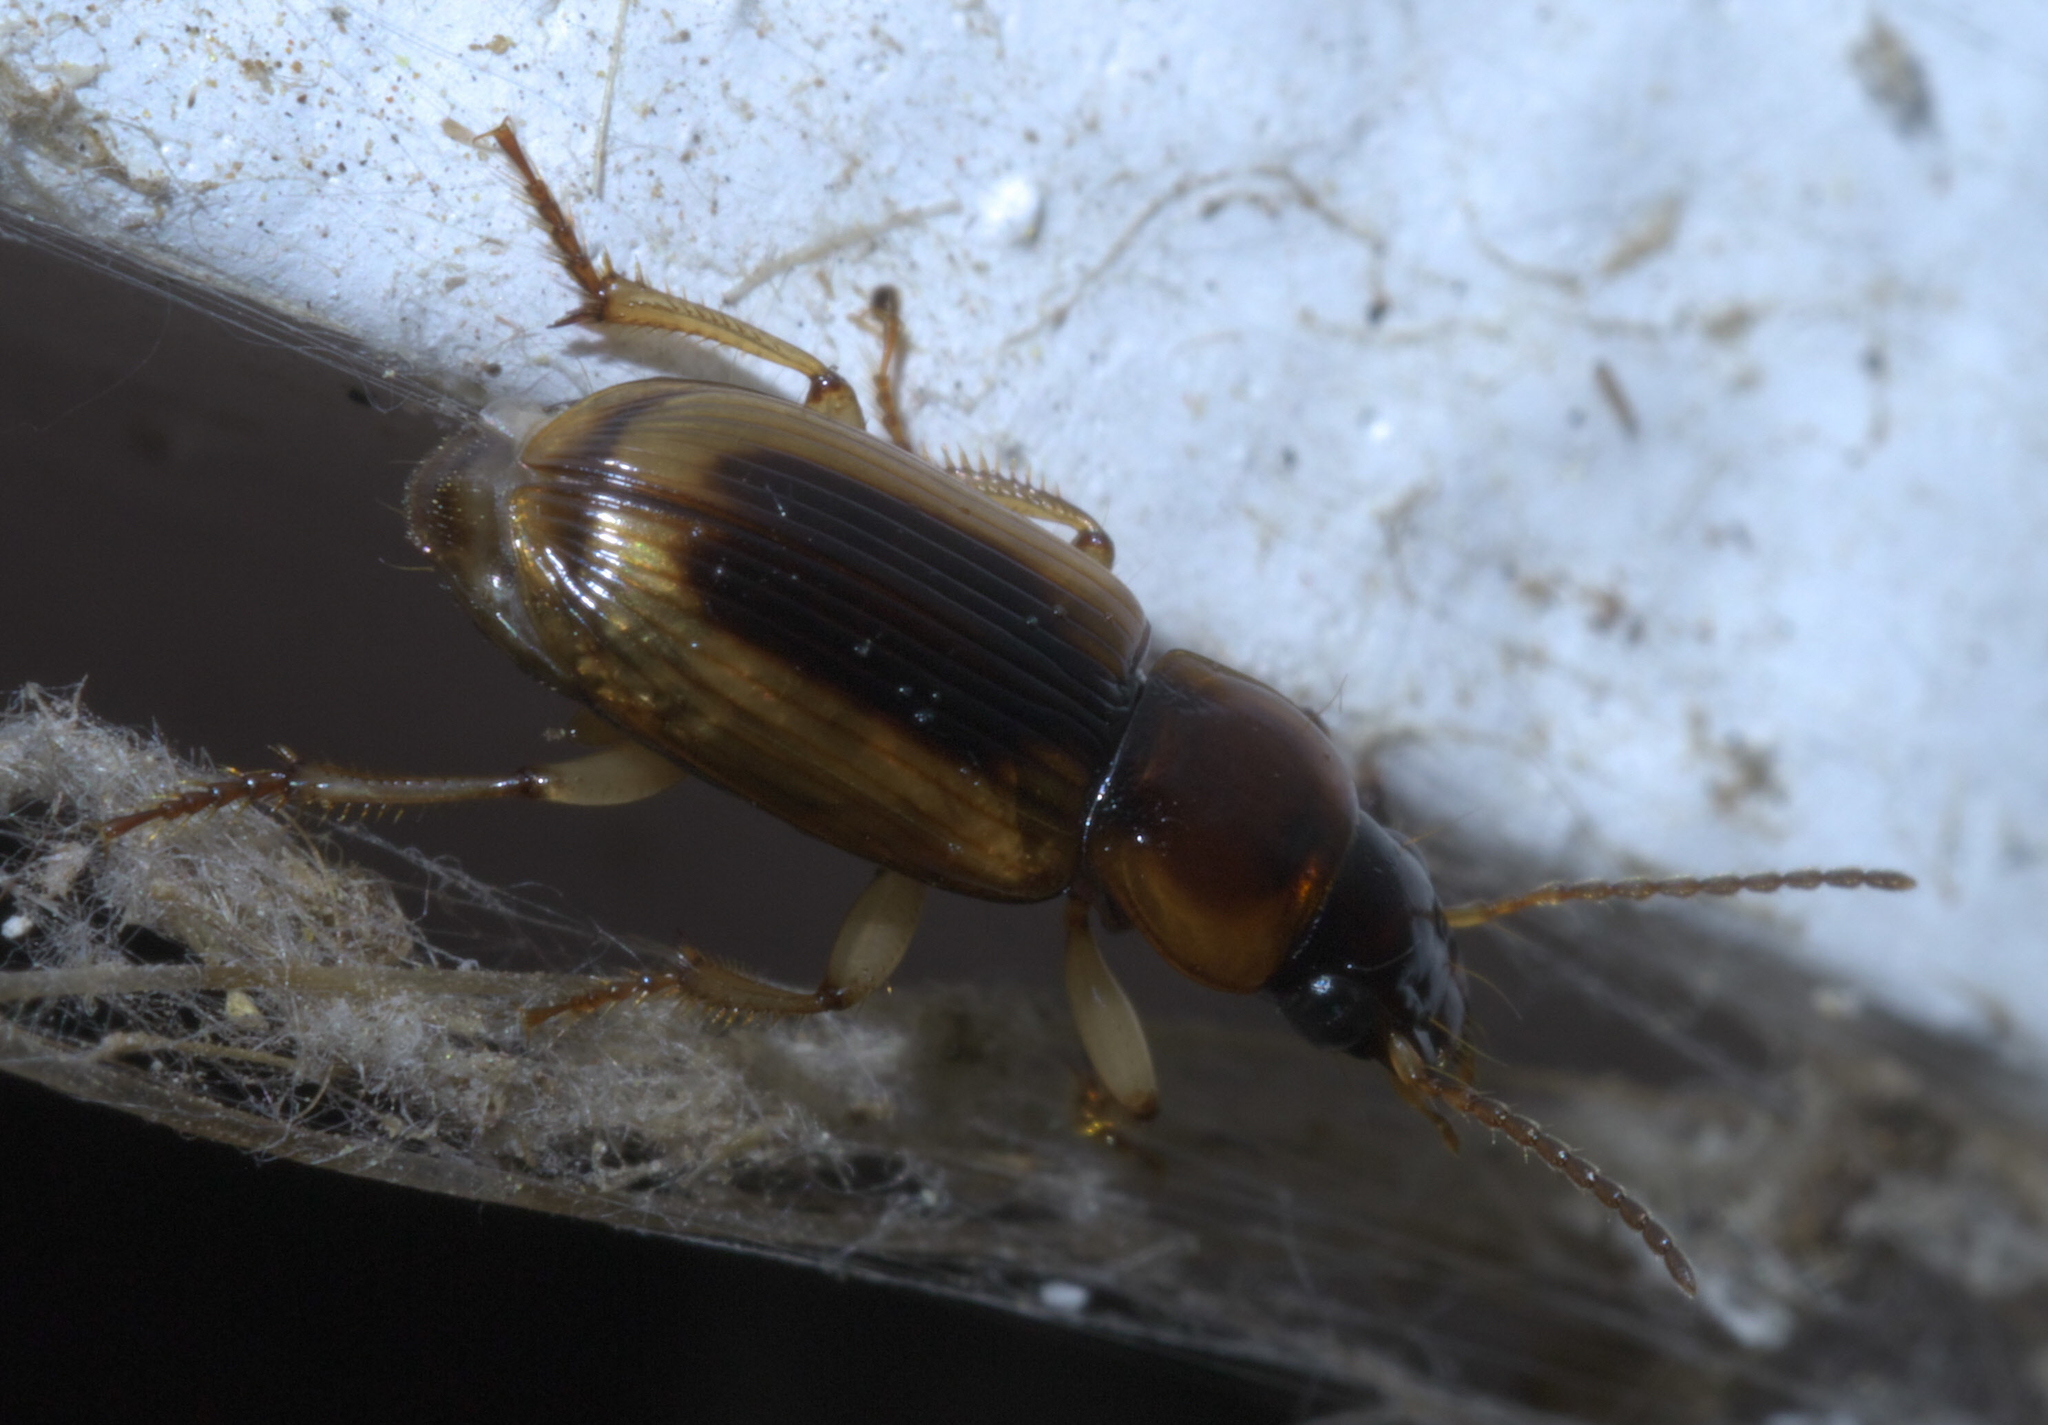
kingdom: Animalia
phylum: Arthropoda
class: Insecta
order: Coleoptera
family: Carabidae
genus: Stenolophus
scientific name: Stenolophus lecontei
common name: Leconte's seedcorn beetle
